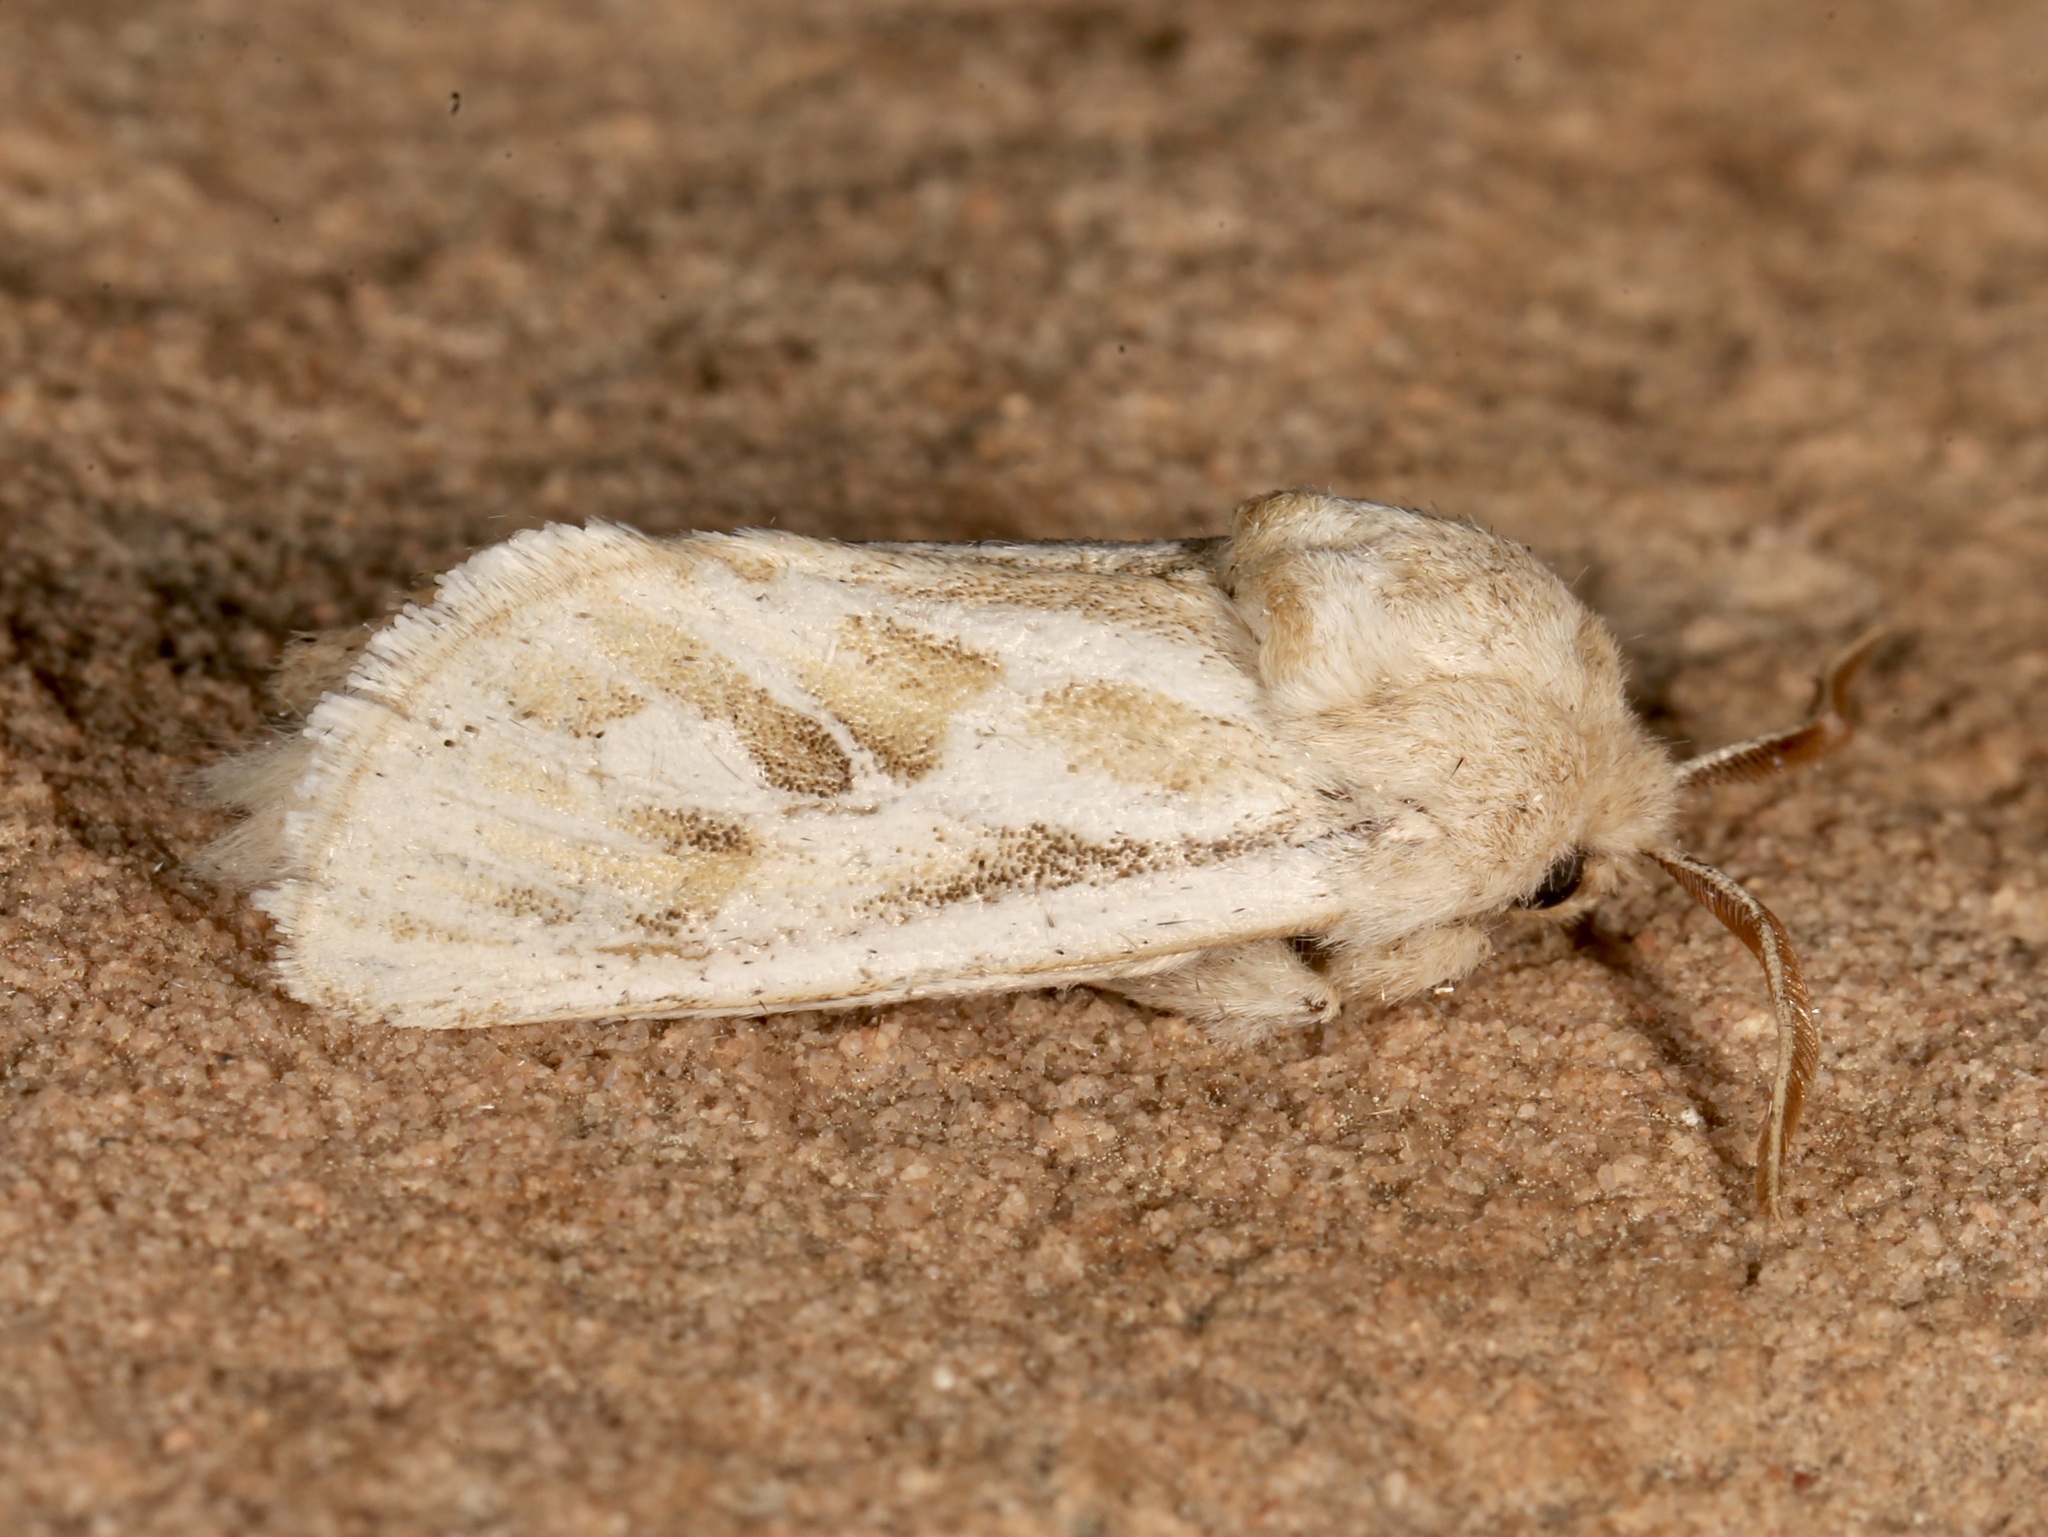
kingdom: Animalia
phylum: Arthropoda
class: Insecta
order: Lepidoptera
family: Cossidae
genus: Comadia
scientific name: Comadia henrici
